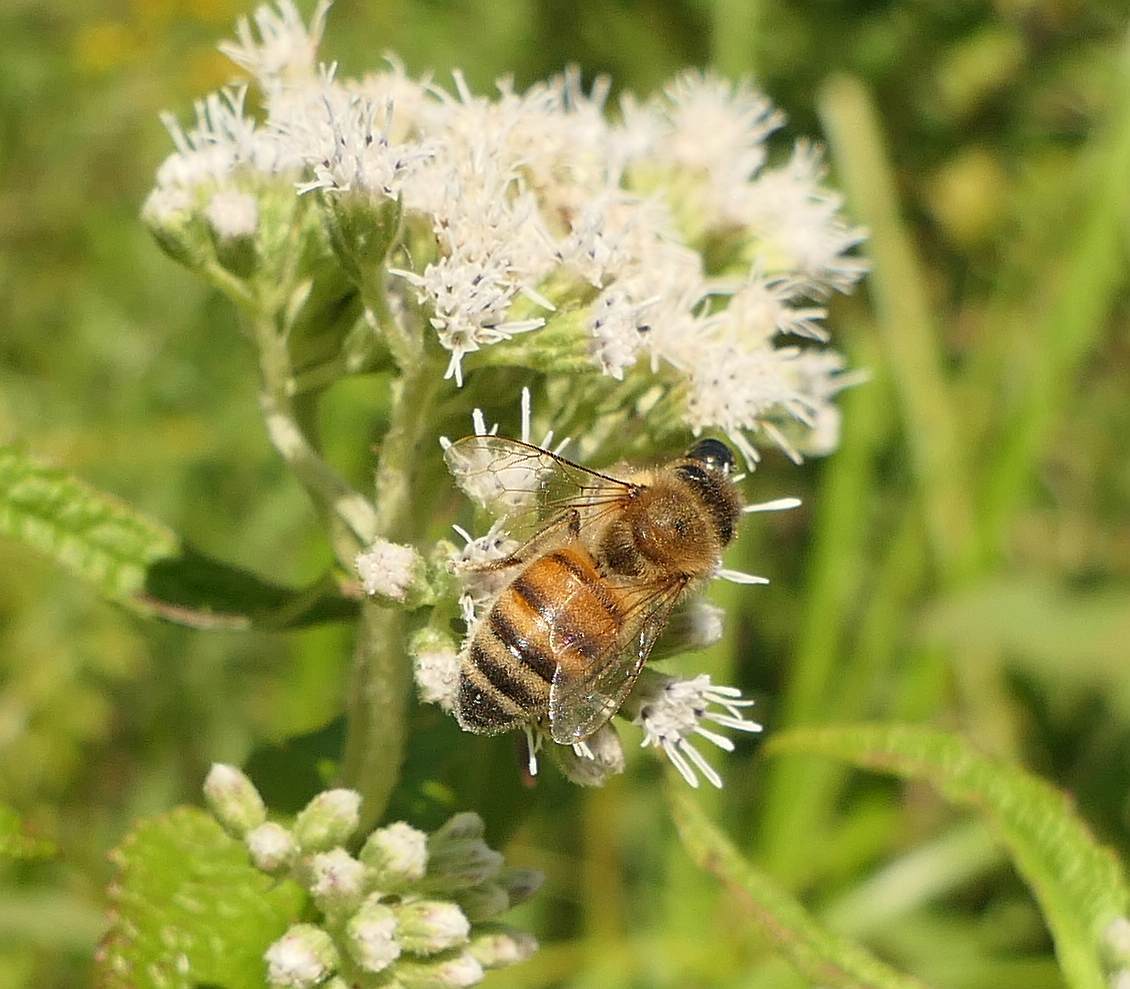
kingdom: Animalia
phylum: Arthropoda
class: Insecta
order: Hymenoptera
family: Apidae
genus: Apis
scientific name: Apis mellifera
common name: Honey bee
